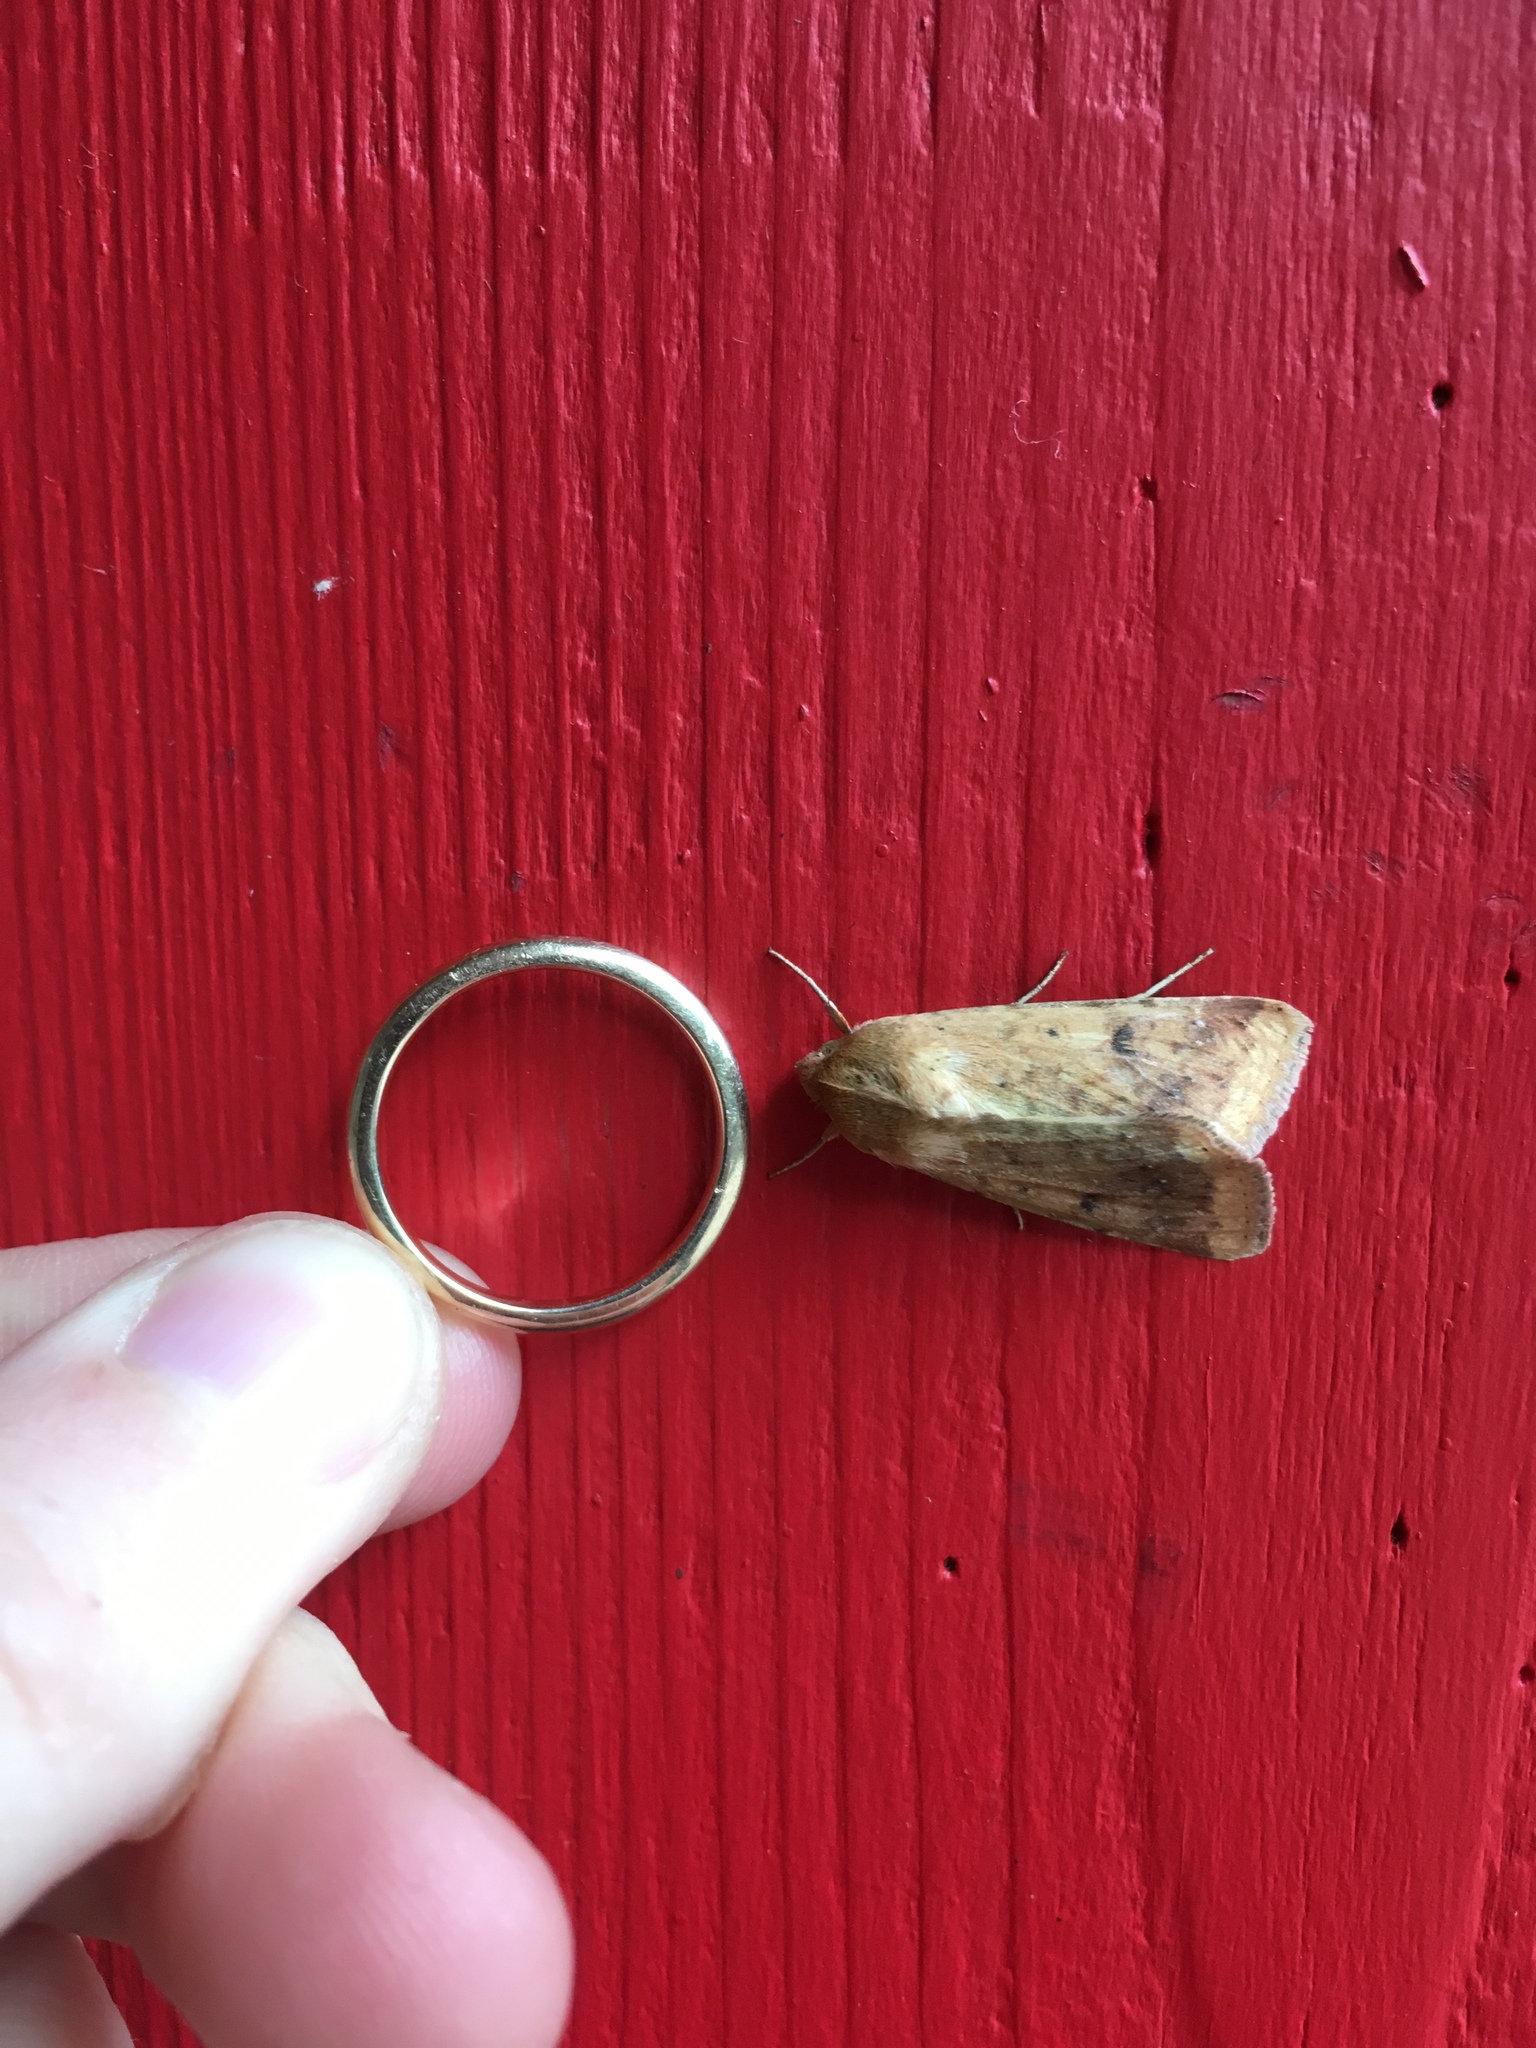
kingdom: Animalia
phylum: Arthropoda
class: Insecta
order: Lepidoptera
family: Noctuidae
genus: Helicoverpa
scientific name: Helicoverpa zea
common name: Bollworm
